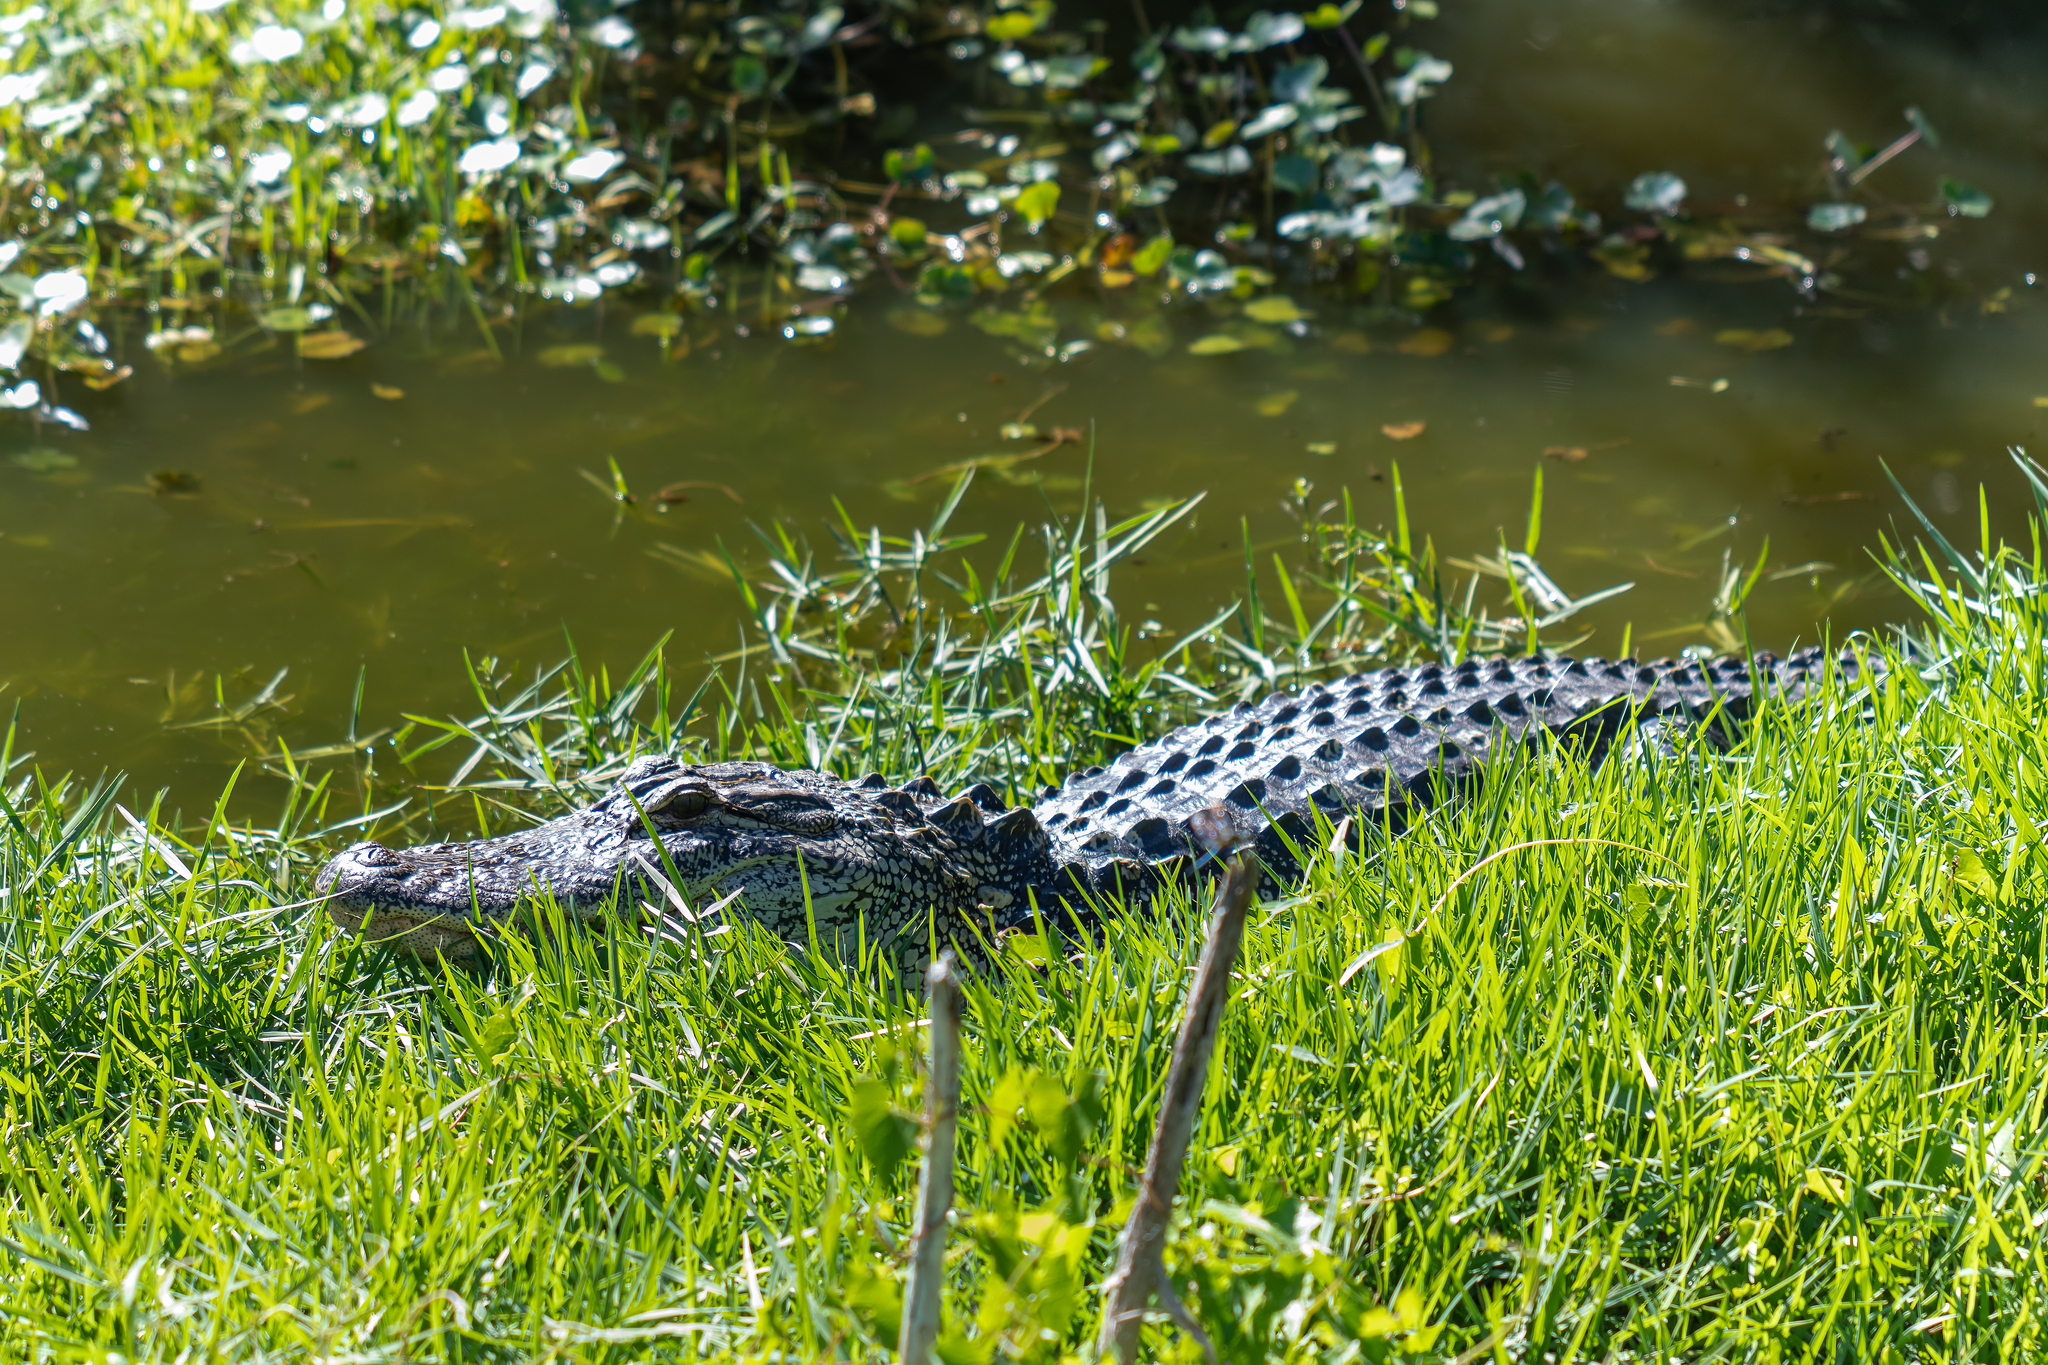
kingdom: Animalia
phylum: Chordata
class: Crocodylia
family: Alligatoridae
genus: Alligator
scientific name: Alligator mississippiensis
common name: American alligator
